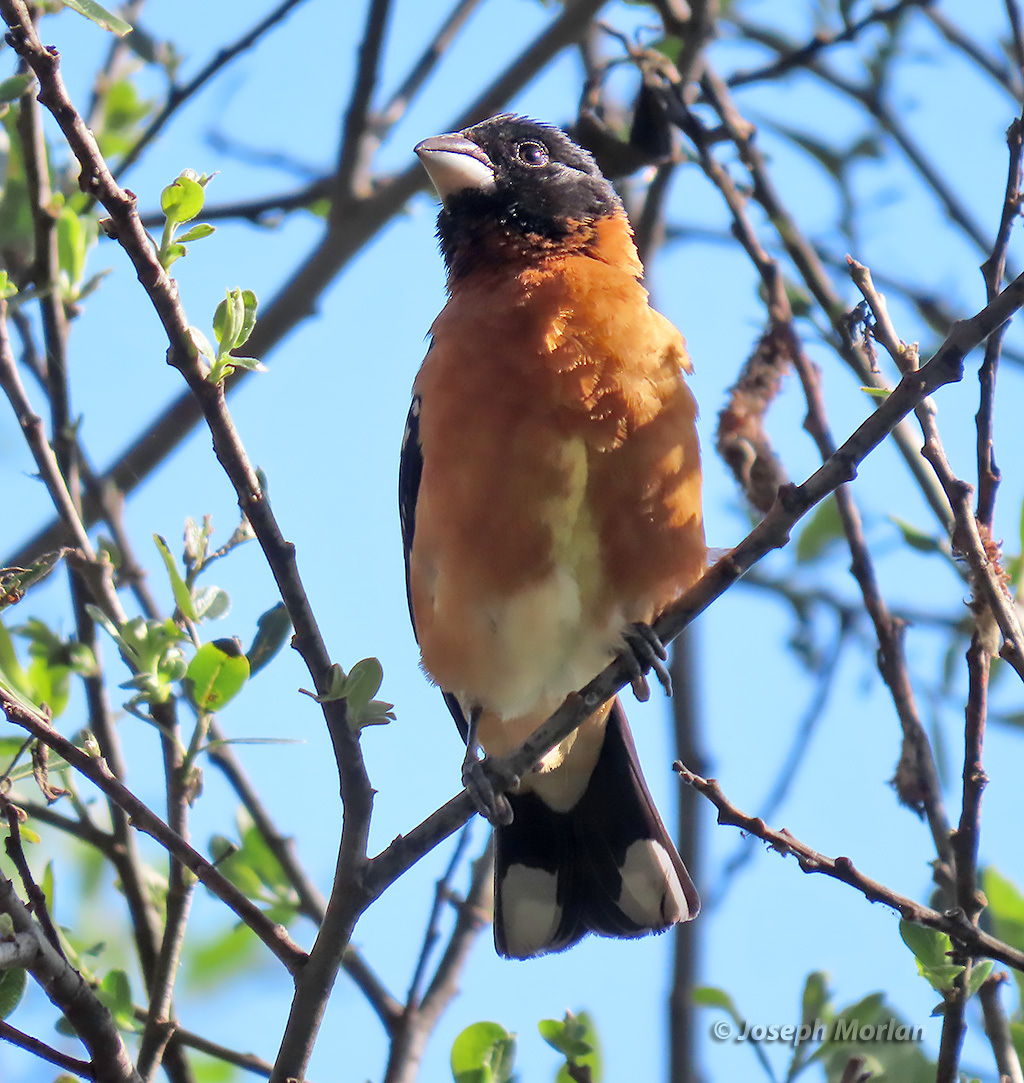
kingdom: Animalia
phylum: Chordata
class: Aves
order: Passeriformes
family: Cardinalidae
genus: Pheucticus
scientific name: Pheucticus melanocephalus
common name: Black-headed grosbeak
